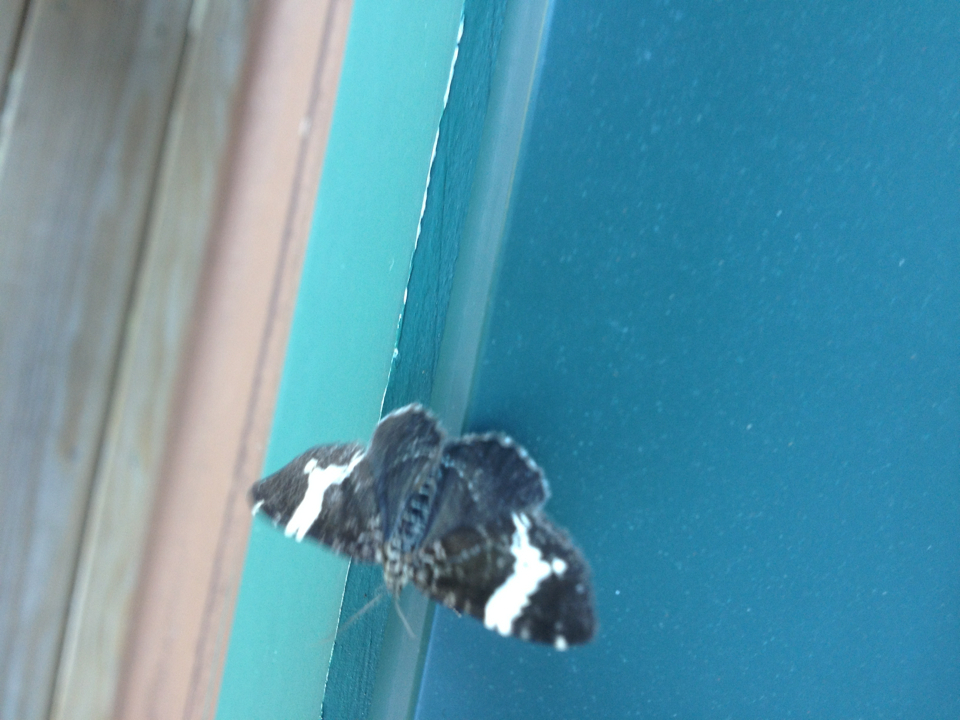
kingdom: Animalia
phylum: Arthropoda
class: Insecta
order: Lepidoptera
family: Geometridae
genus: Rheumaptera
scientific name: Rheumaptera
